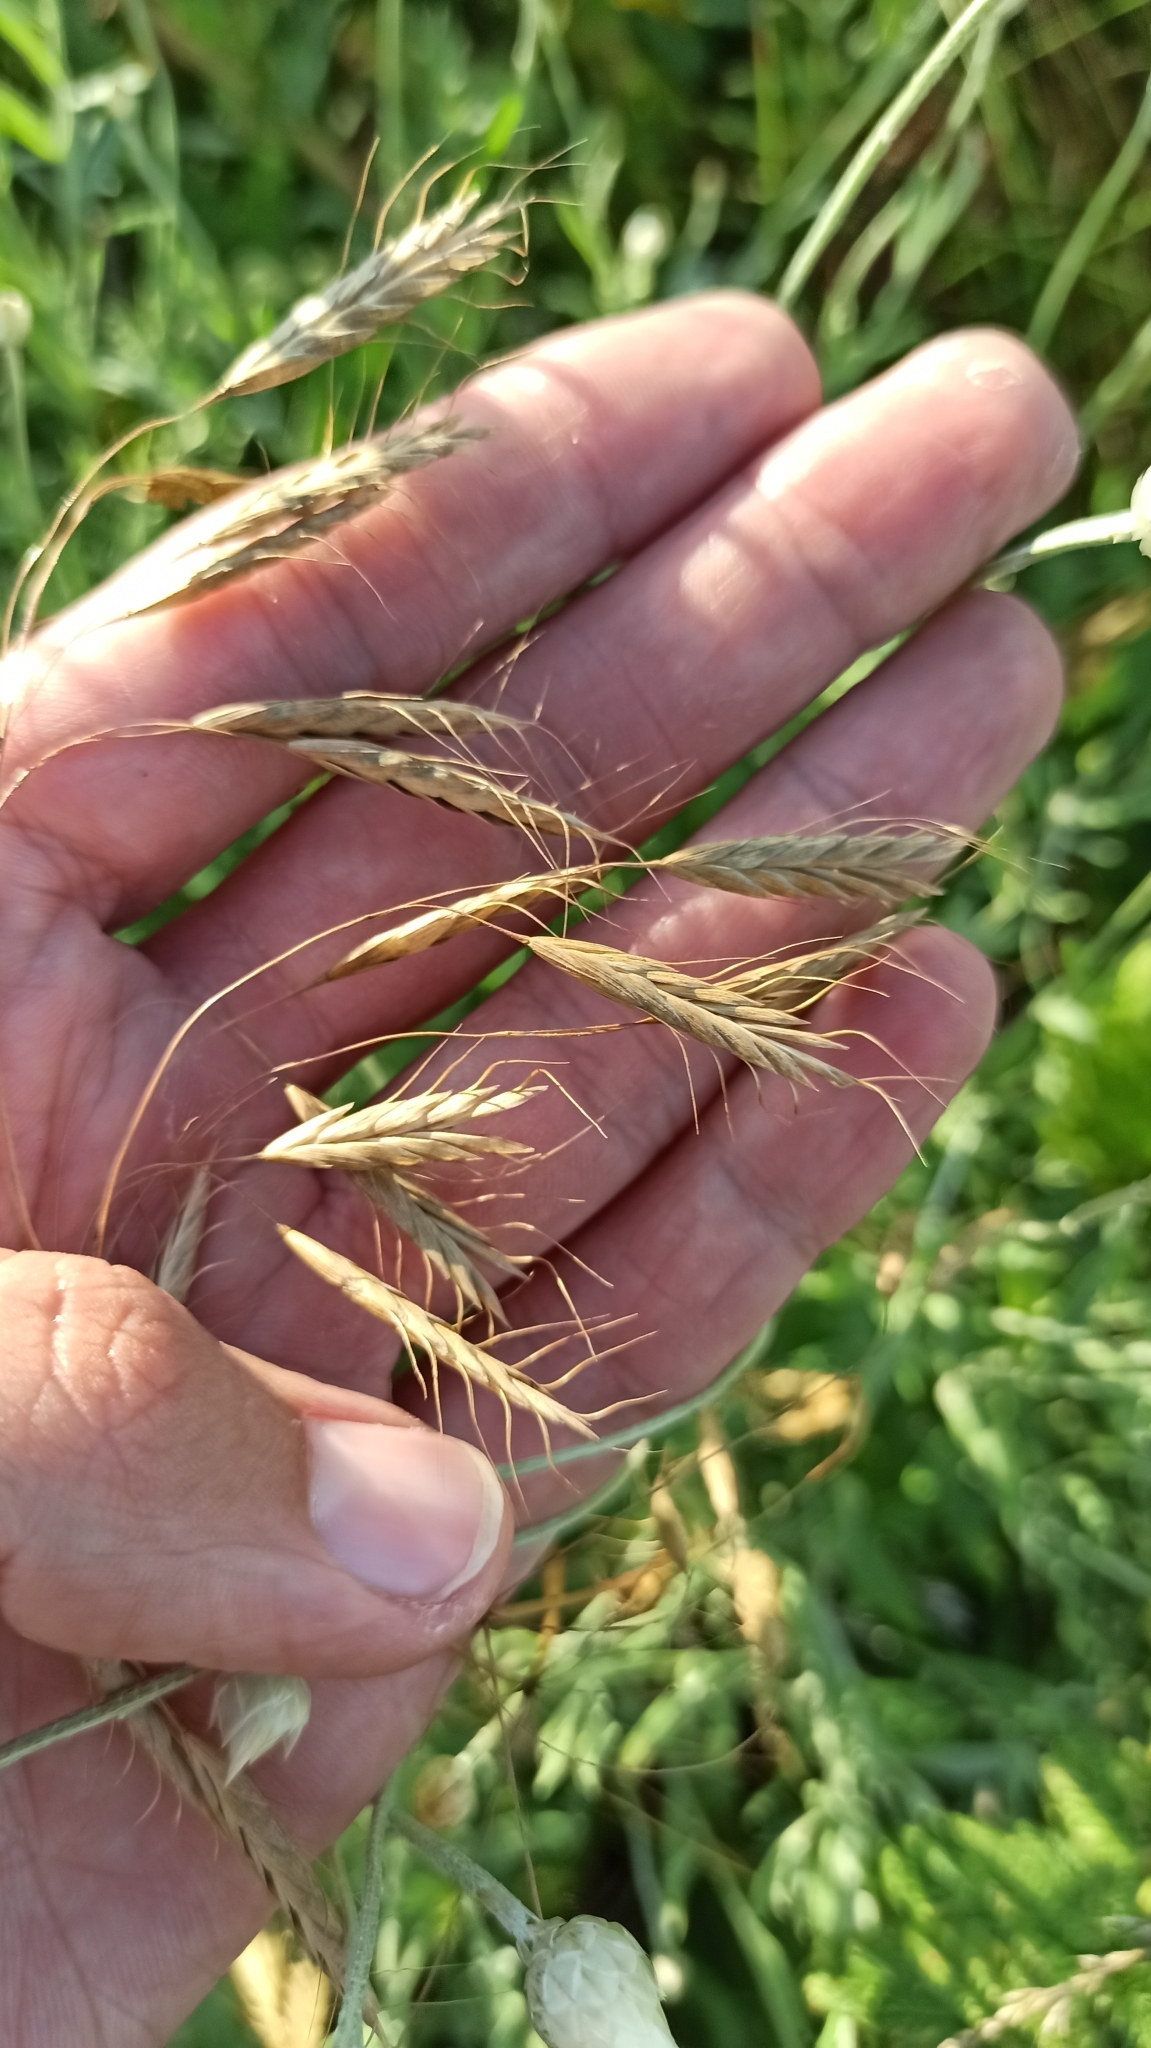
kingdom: Plantae
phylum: Tracheophyta
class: Liliopsida
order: Poales
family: Poaceae
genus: Bromus
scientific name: Bromus japonicus
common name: Japanese brome
